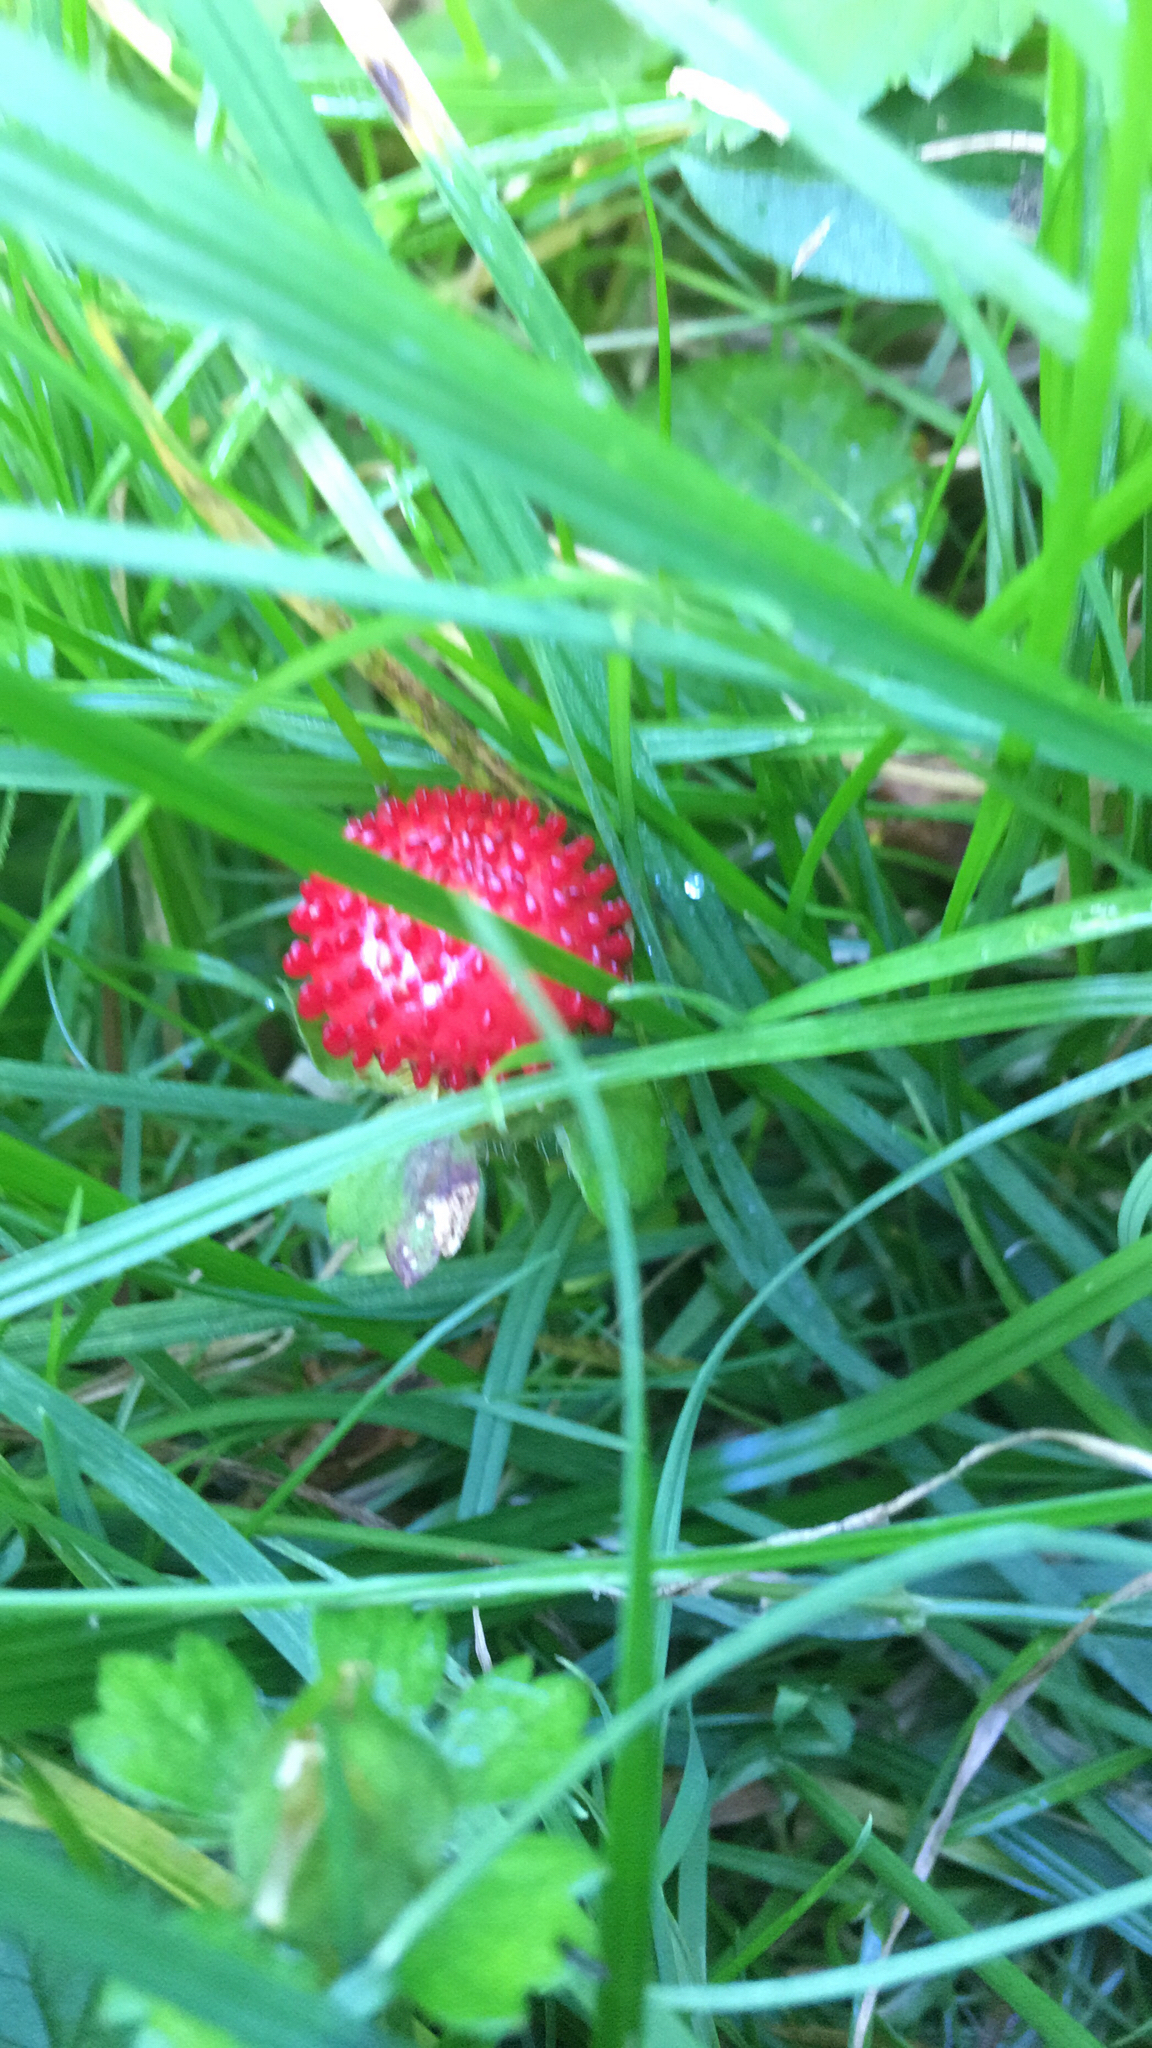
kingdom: Plantae
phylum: Tracheophyta
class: Magnoliopsida
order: Rosales
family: Rosaceae
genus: Potentilla
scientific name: Potentilla indica
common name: Yellow-flowered strawberry
